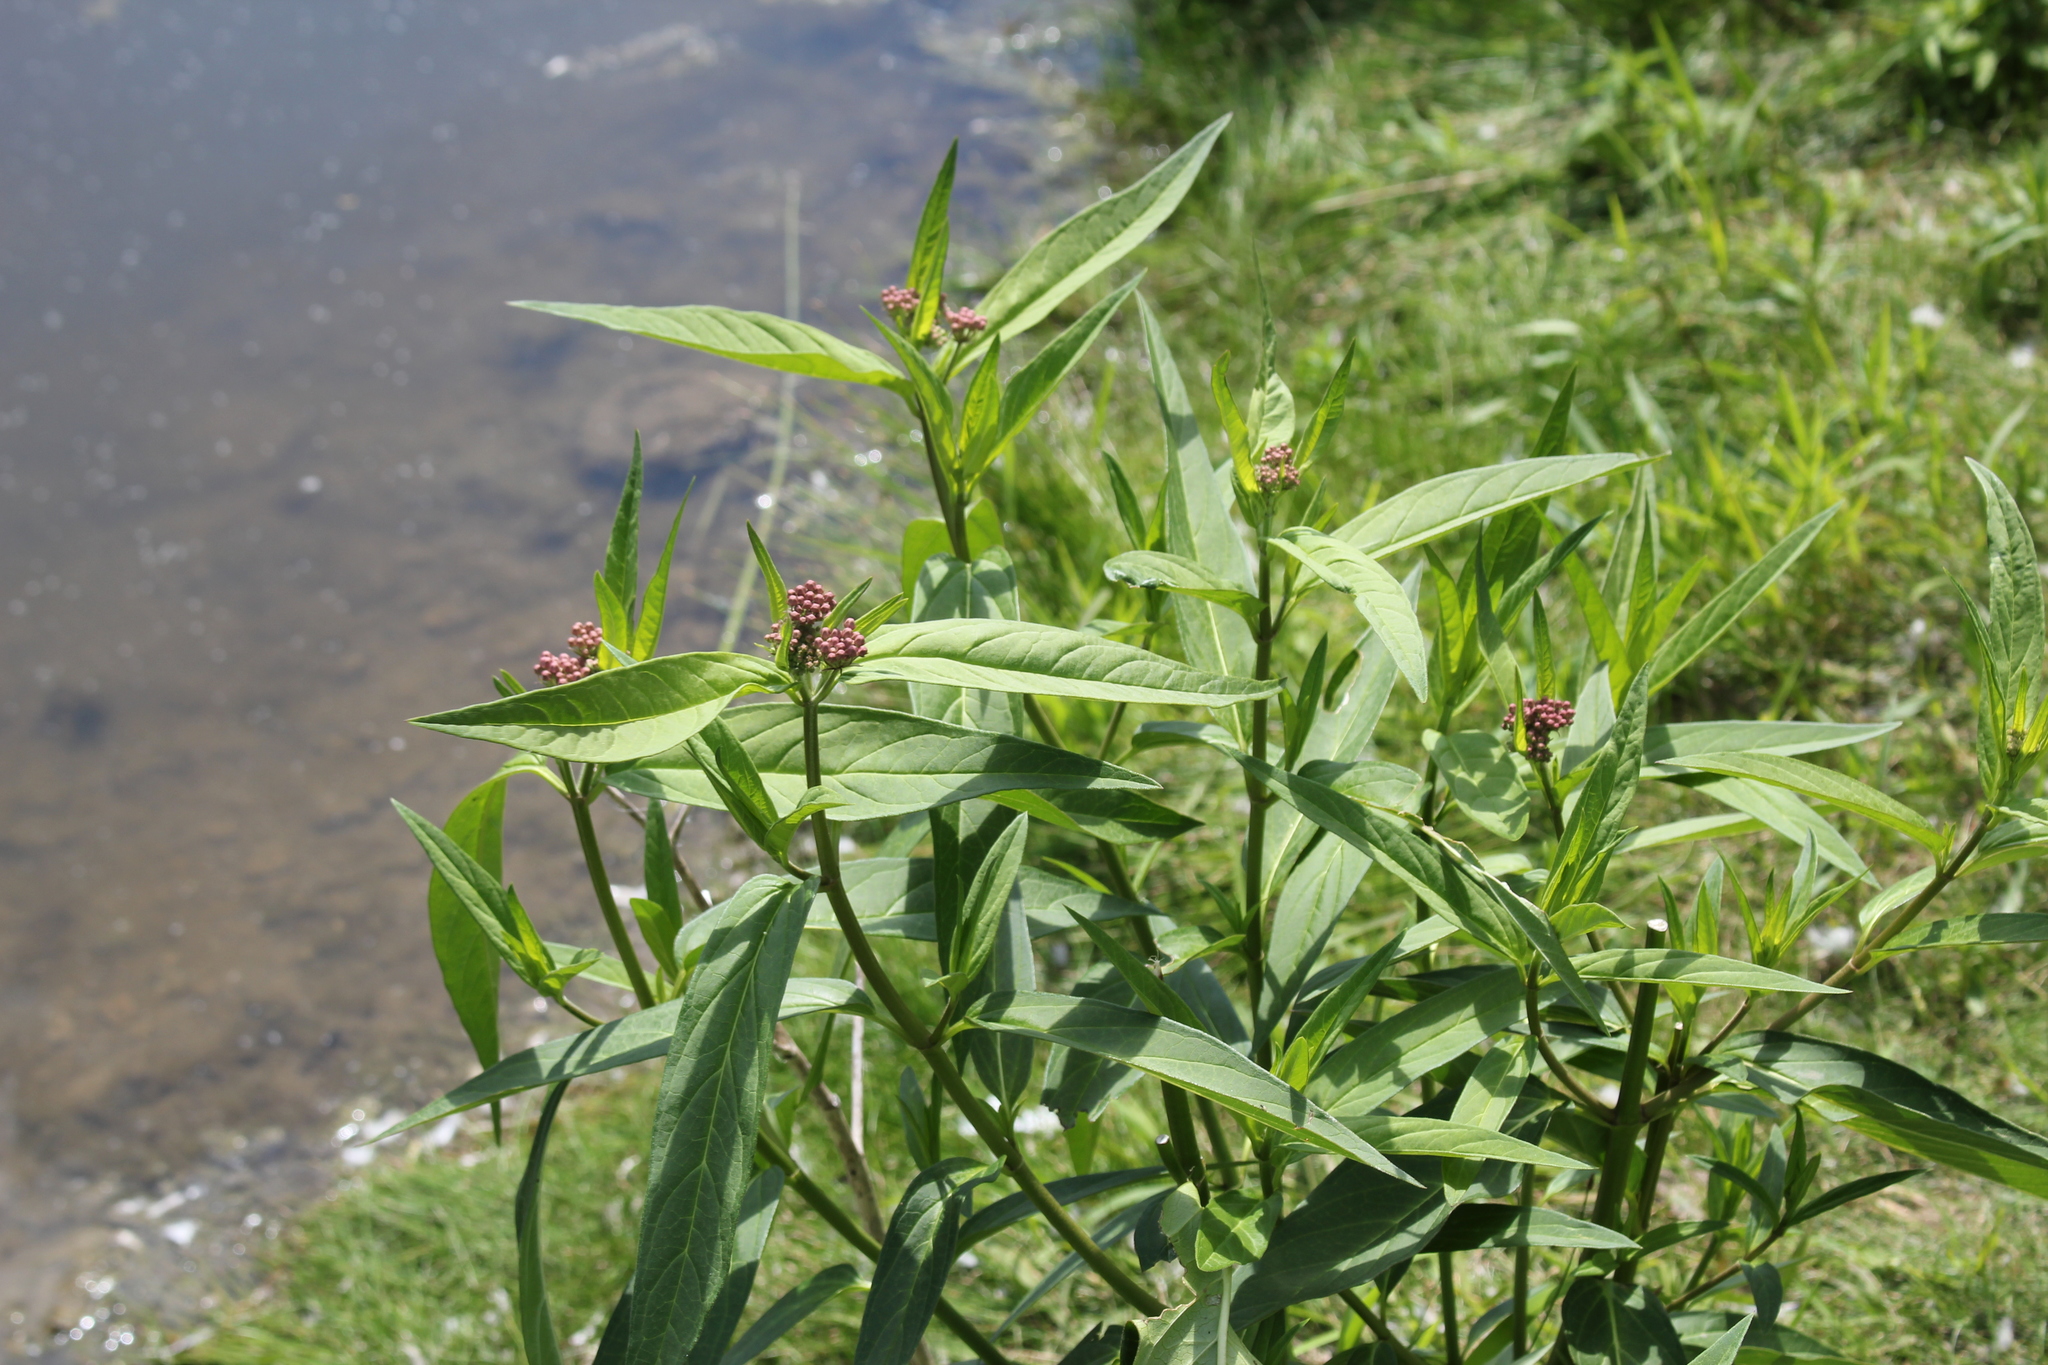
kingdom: Plantae
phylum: Tracheophyta
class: Magnoliopsida
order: Gentianales
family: Apocynaceae
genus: Asclepias
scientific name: Asclepias incarnata
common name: Swamp milkweed
